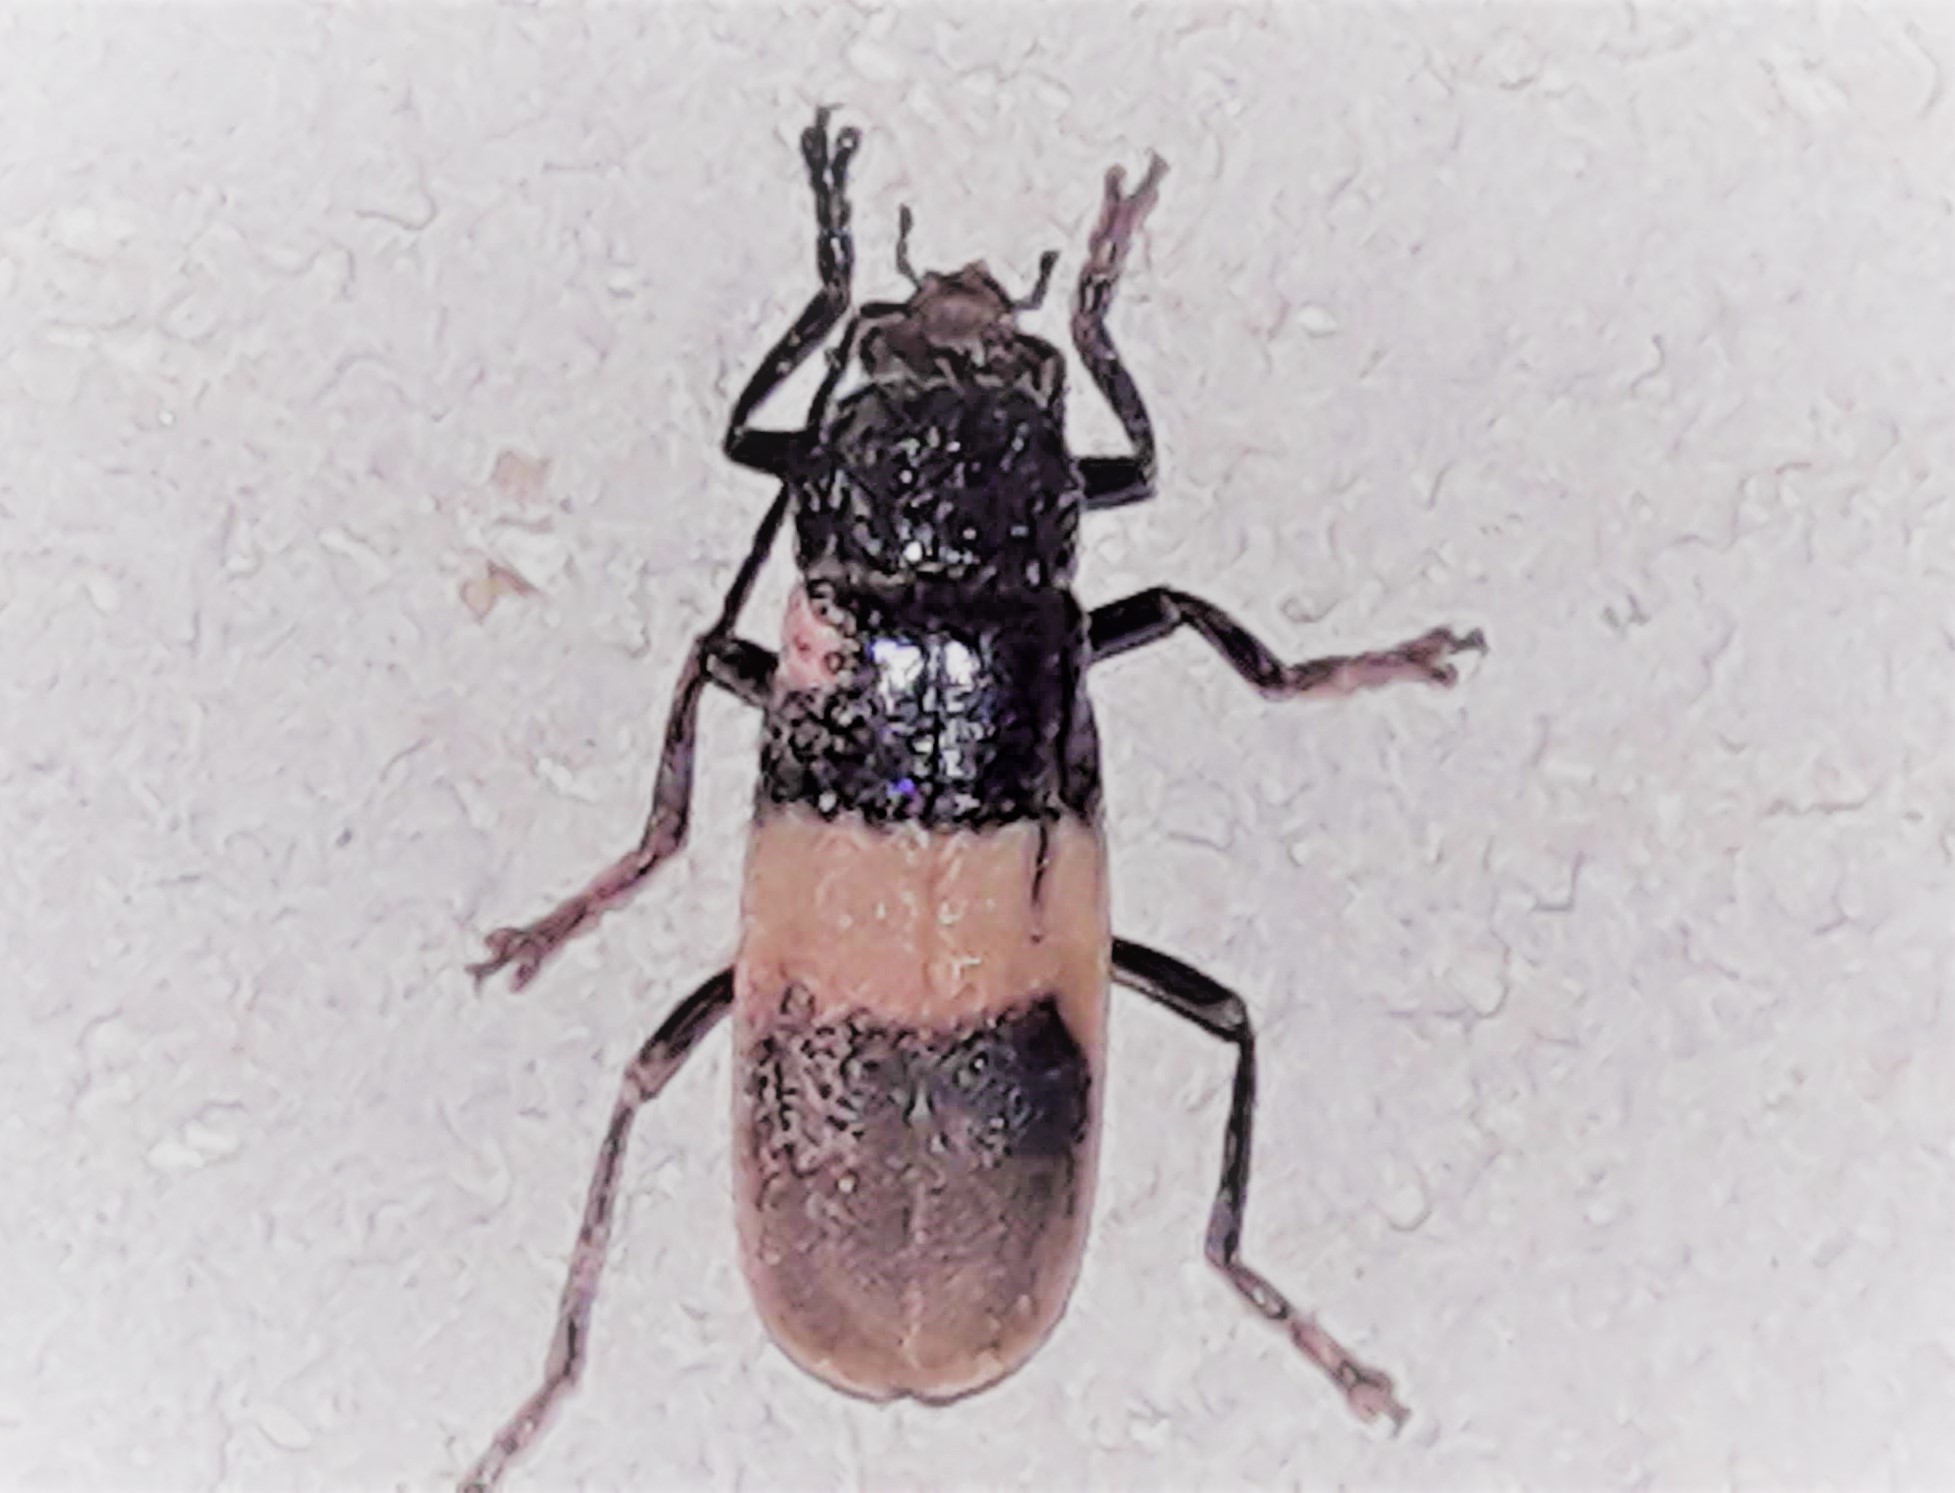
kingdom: Animalia
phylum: Arthropoda
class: Insecta
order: Coleoptera
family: Cantharidae
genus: Chauliognathus
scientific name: Chauliognathus
